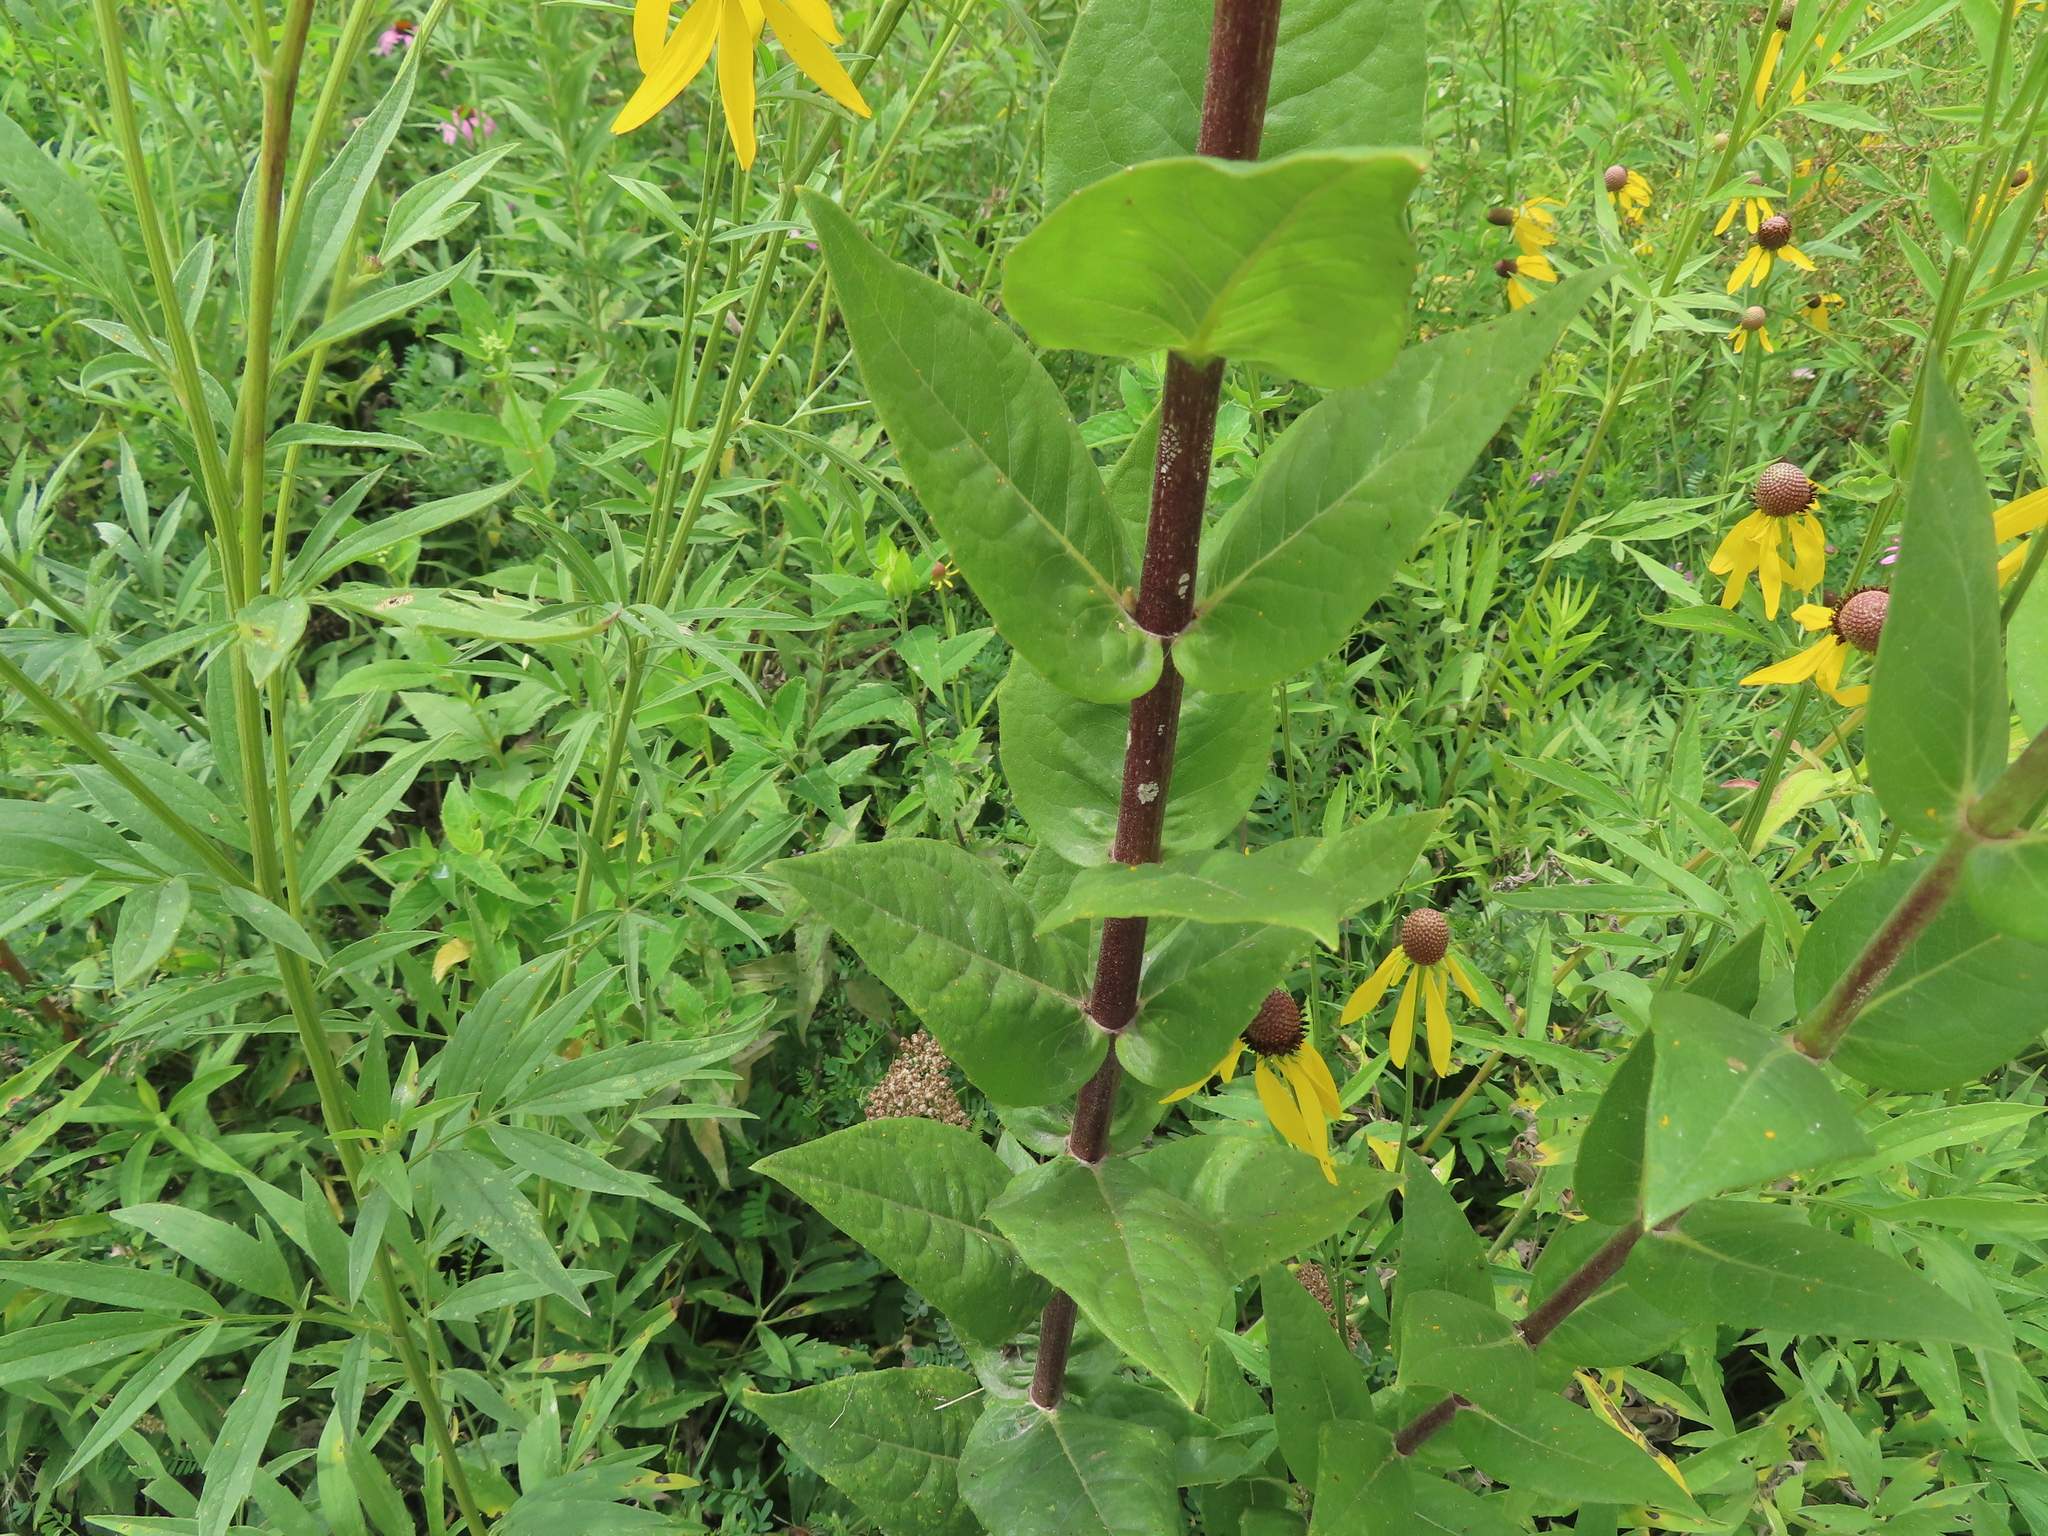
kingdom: Plantae
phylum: Tracheophyta
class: Magnoliopsida
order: Asterales
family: Asteraceae
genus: Silphium
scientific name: Silphium integrifolium
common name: Whole-leaf rosinweed
